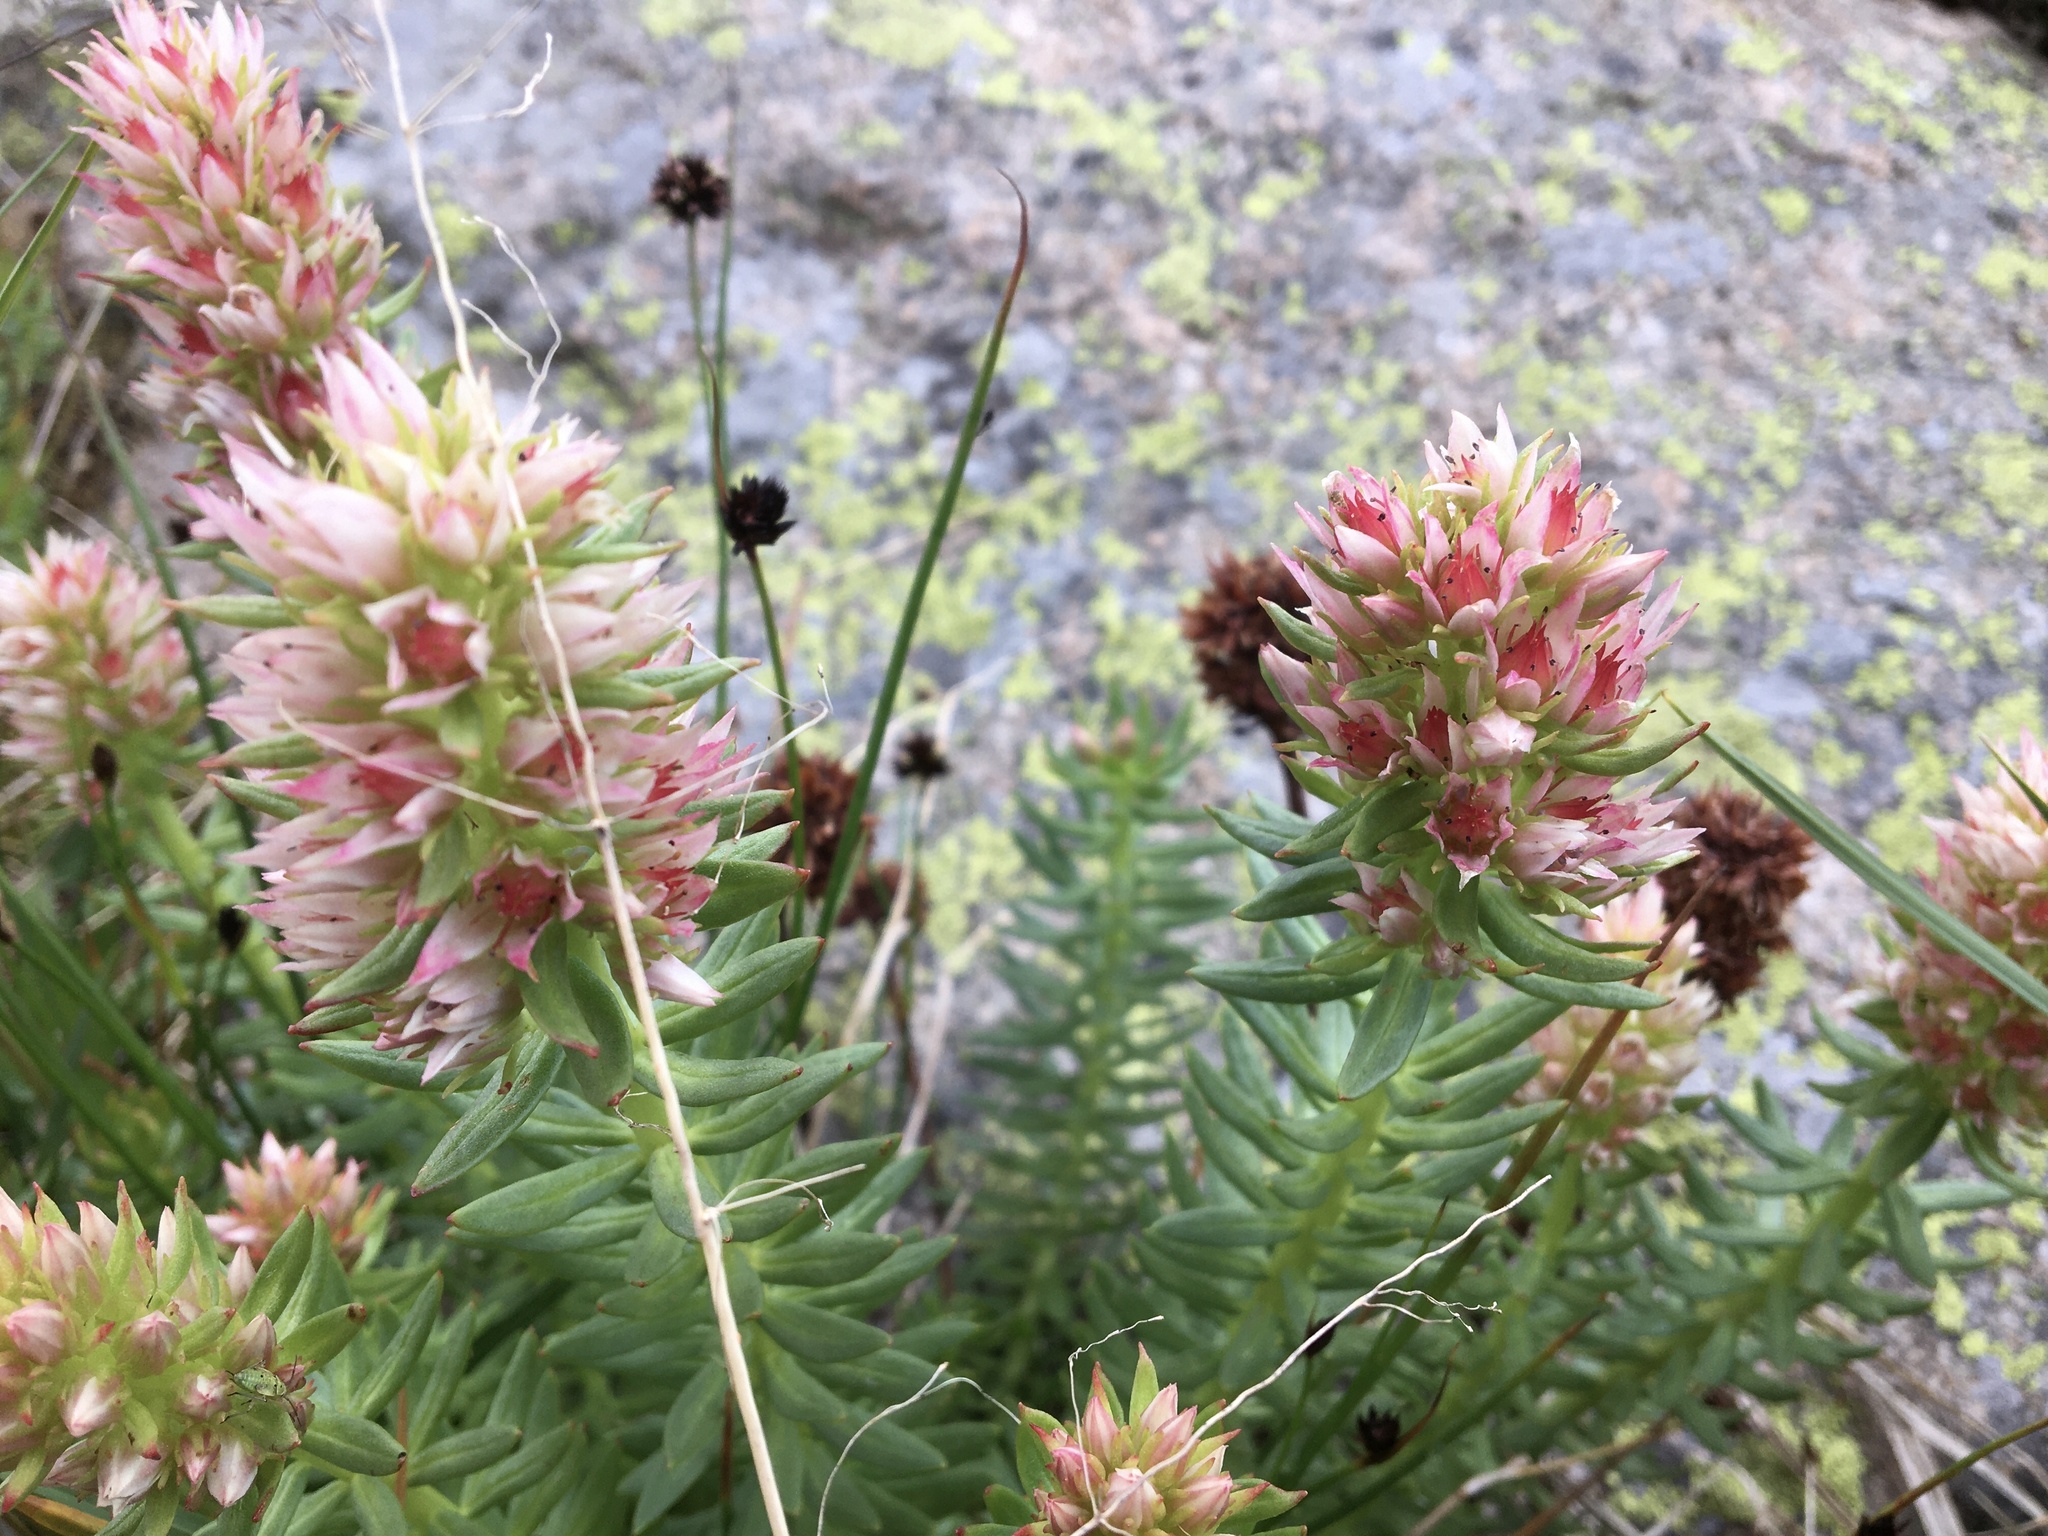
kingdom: Plantae
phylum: Tracheophyta
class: Magnoliopsida
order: Saxifragales
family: Crassulaceae
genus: Rhodiola
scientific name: Rhodiola rhodantha
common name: Red orpine
